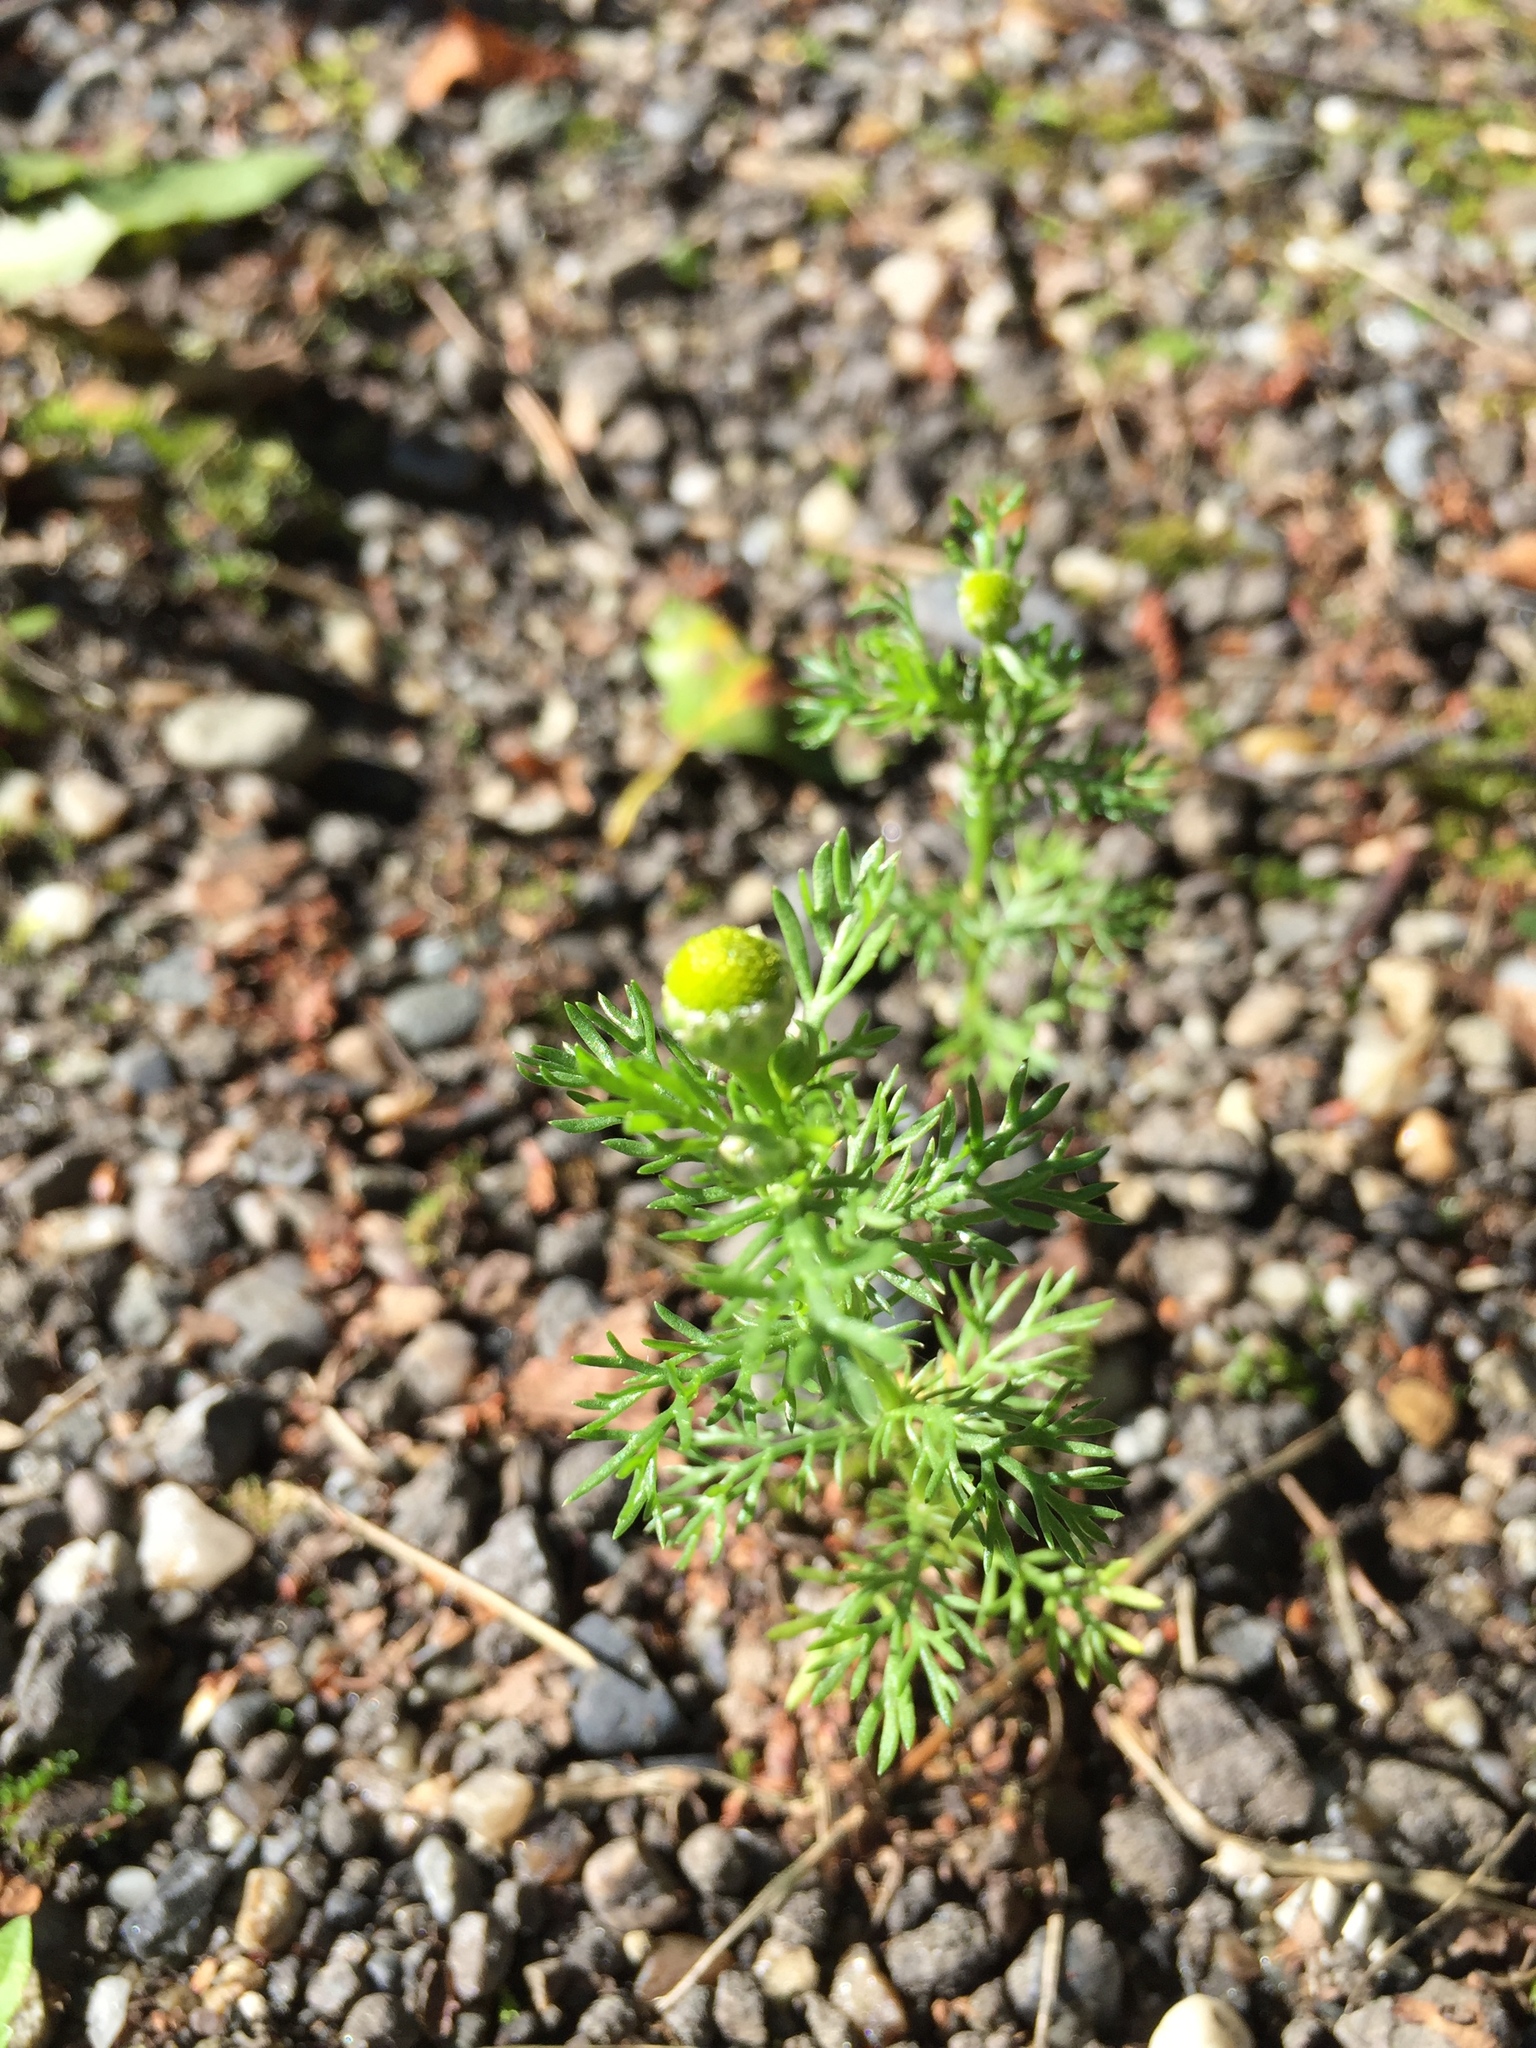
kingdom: Plantae
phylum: Tracheophyta
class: Magnoliopsida
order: Asterales
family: Asteraceae
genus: Matricaria
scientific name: Matricaria discoidea
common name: Disc mayweed
